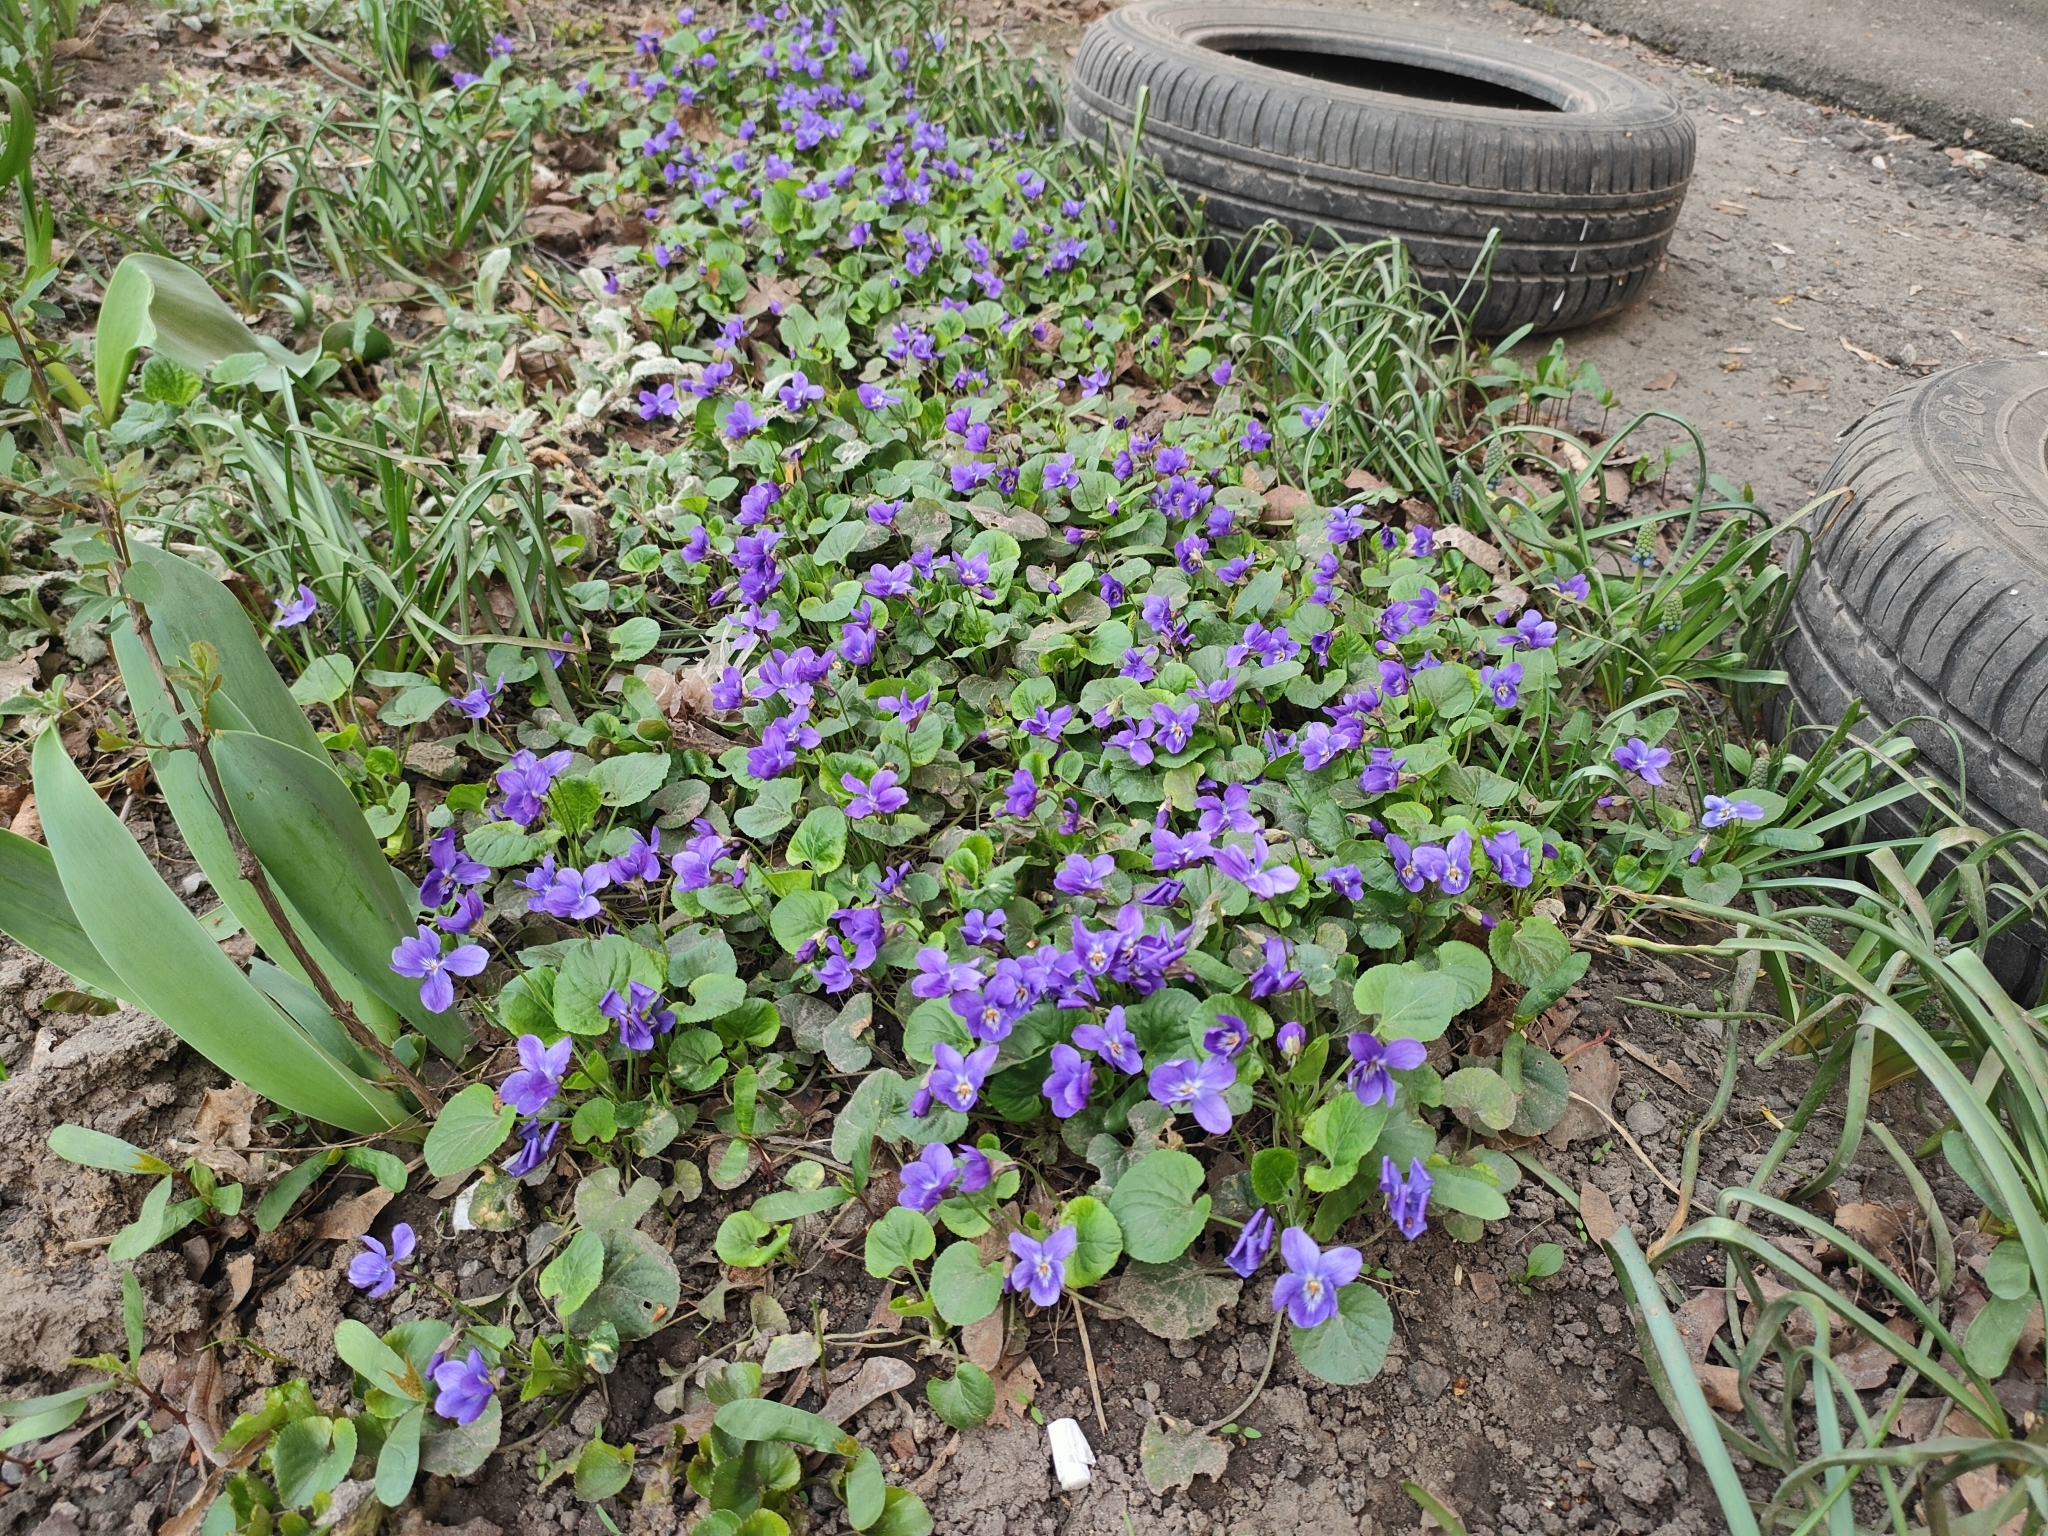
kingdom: Plantae
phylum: Tracheophyta
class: Magnoliopsida
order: Malpighiales
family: Violaceae
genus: Viola
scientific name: Viola odorata
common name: Sweet violet
